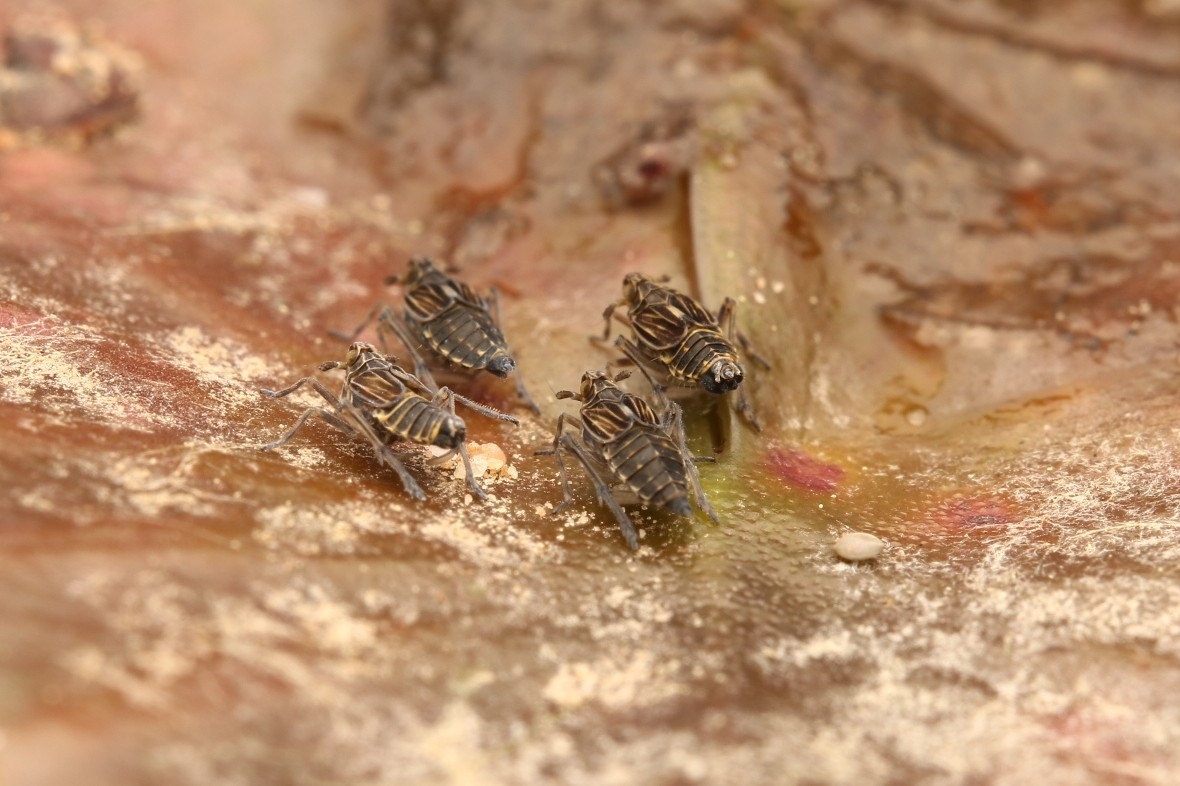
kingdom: Animalia
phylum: Arthropoda
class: Insecta
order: Hemiptera
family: Delphacidae
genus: Megamelus
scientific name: Megamelus davisi
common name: Planthopper
